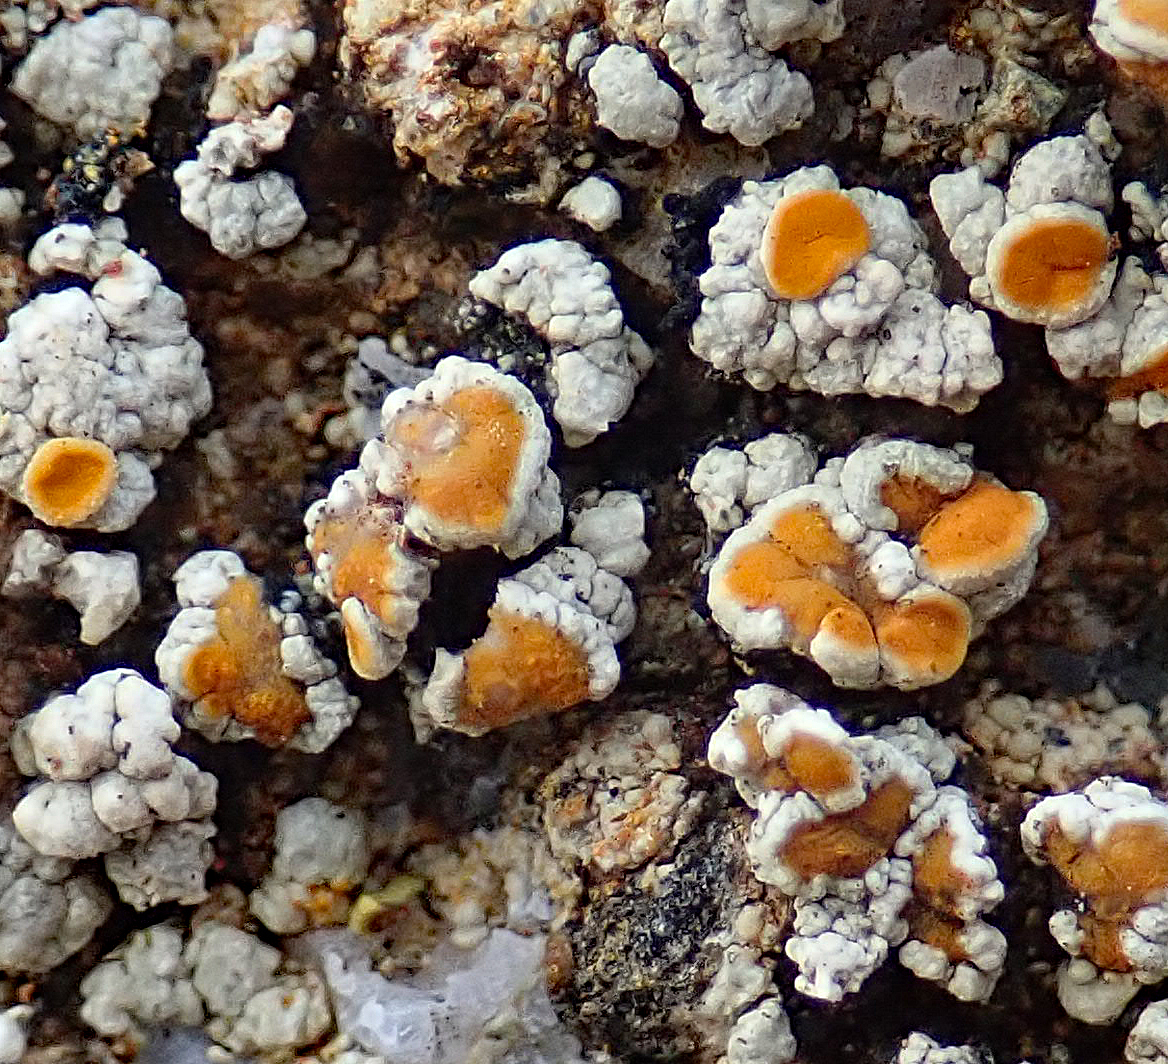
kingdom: Fungi
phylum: Ascomycota
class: Lecanoromycetes
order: Teloschistales
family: Teloschistaceae
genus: Caloplaca
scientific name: Caloplaca maculata
